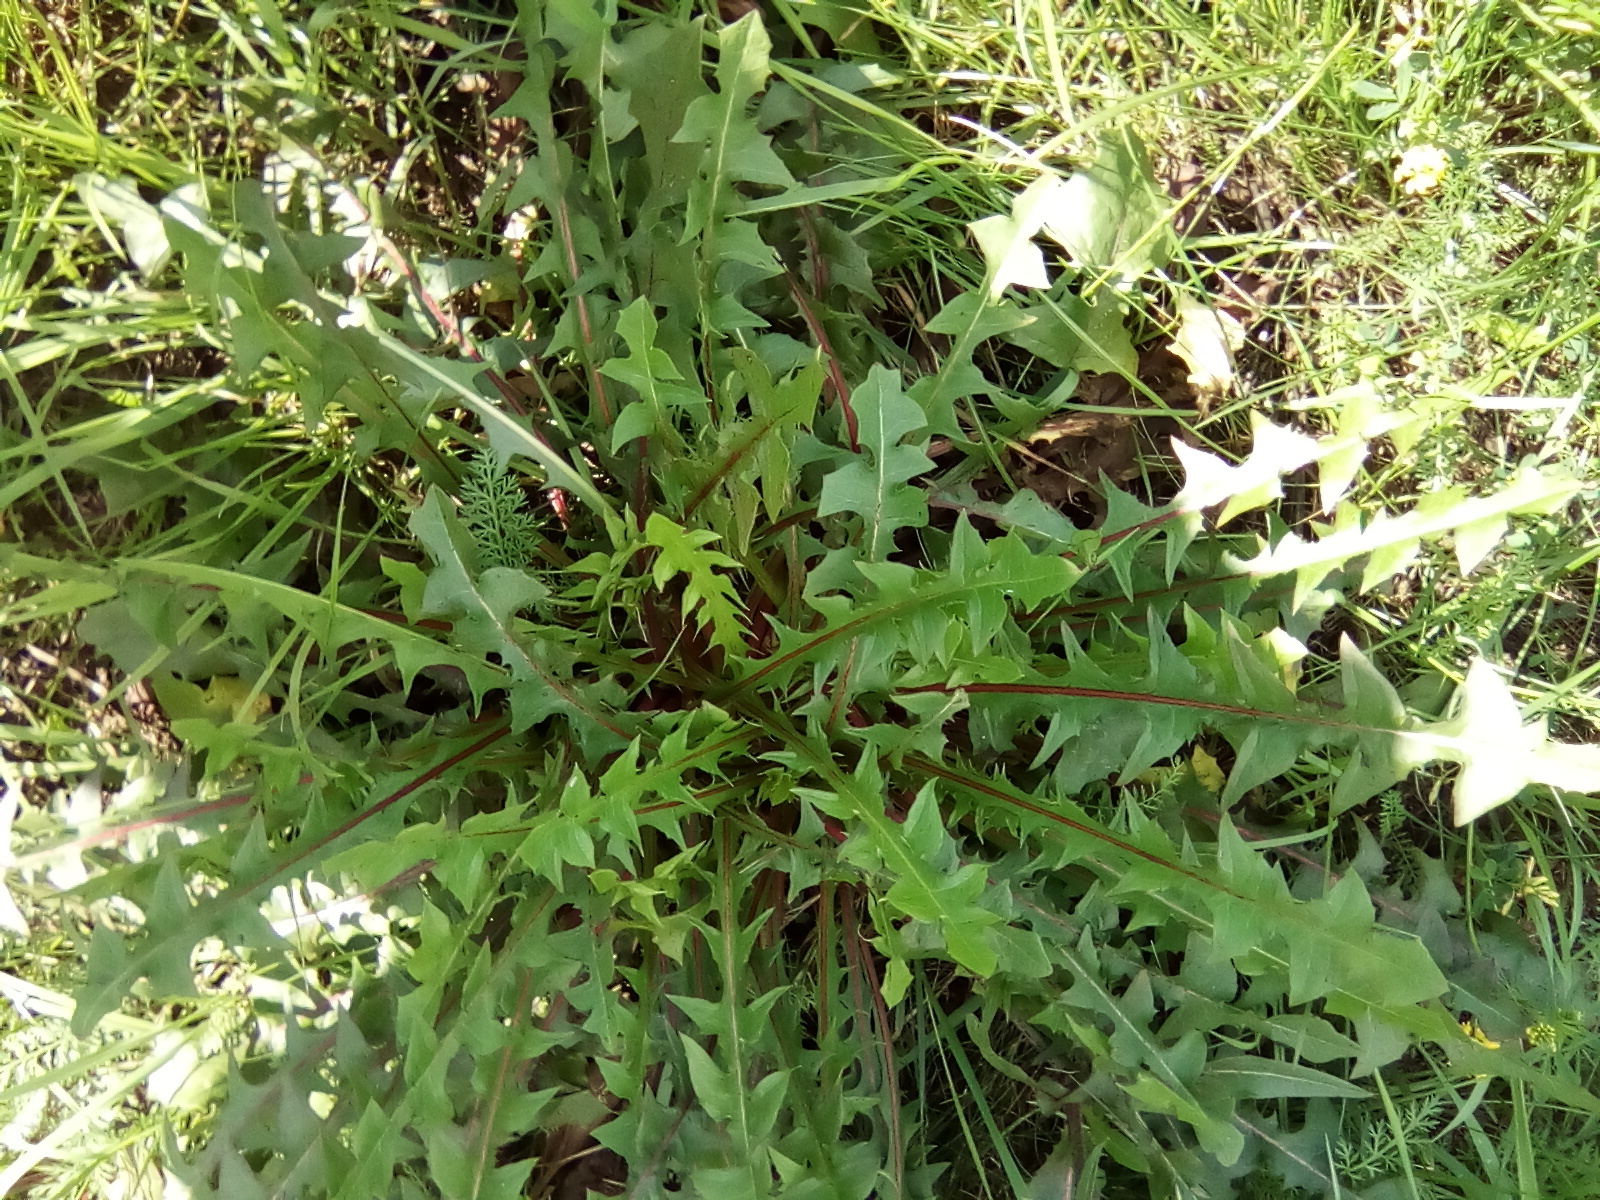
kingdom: Plantae
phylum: Tracheophyta
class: Magnoliopsida
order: Asterales
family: Asteraceae
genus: Taraxacum
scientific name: Taraxacum officinale
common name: Common dandelion
